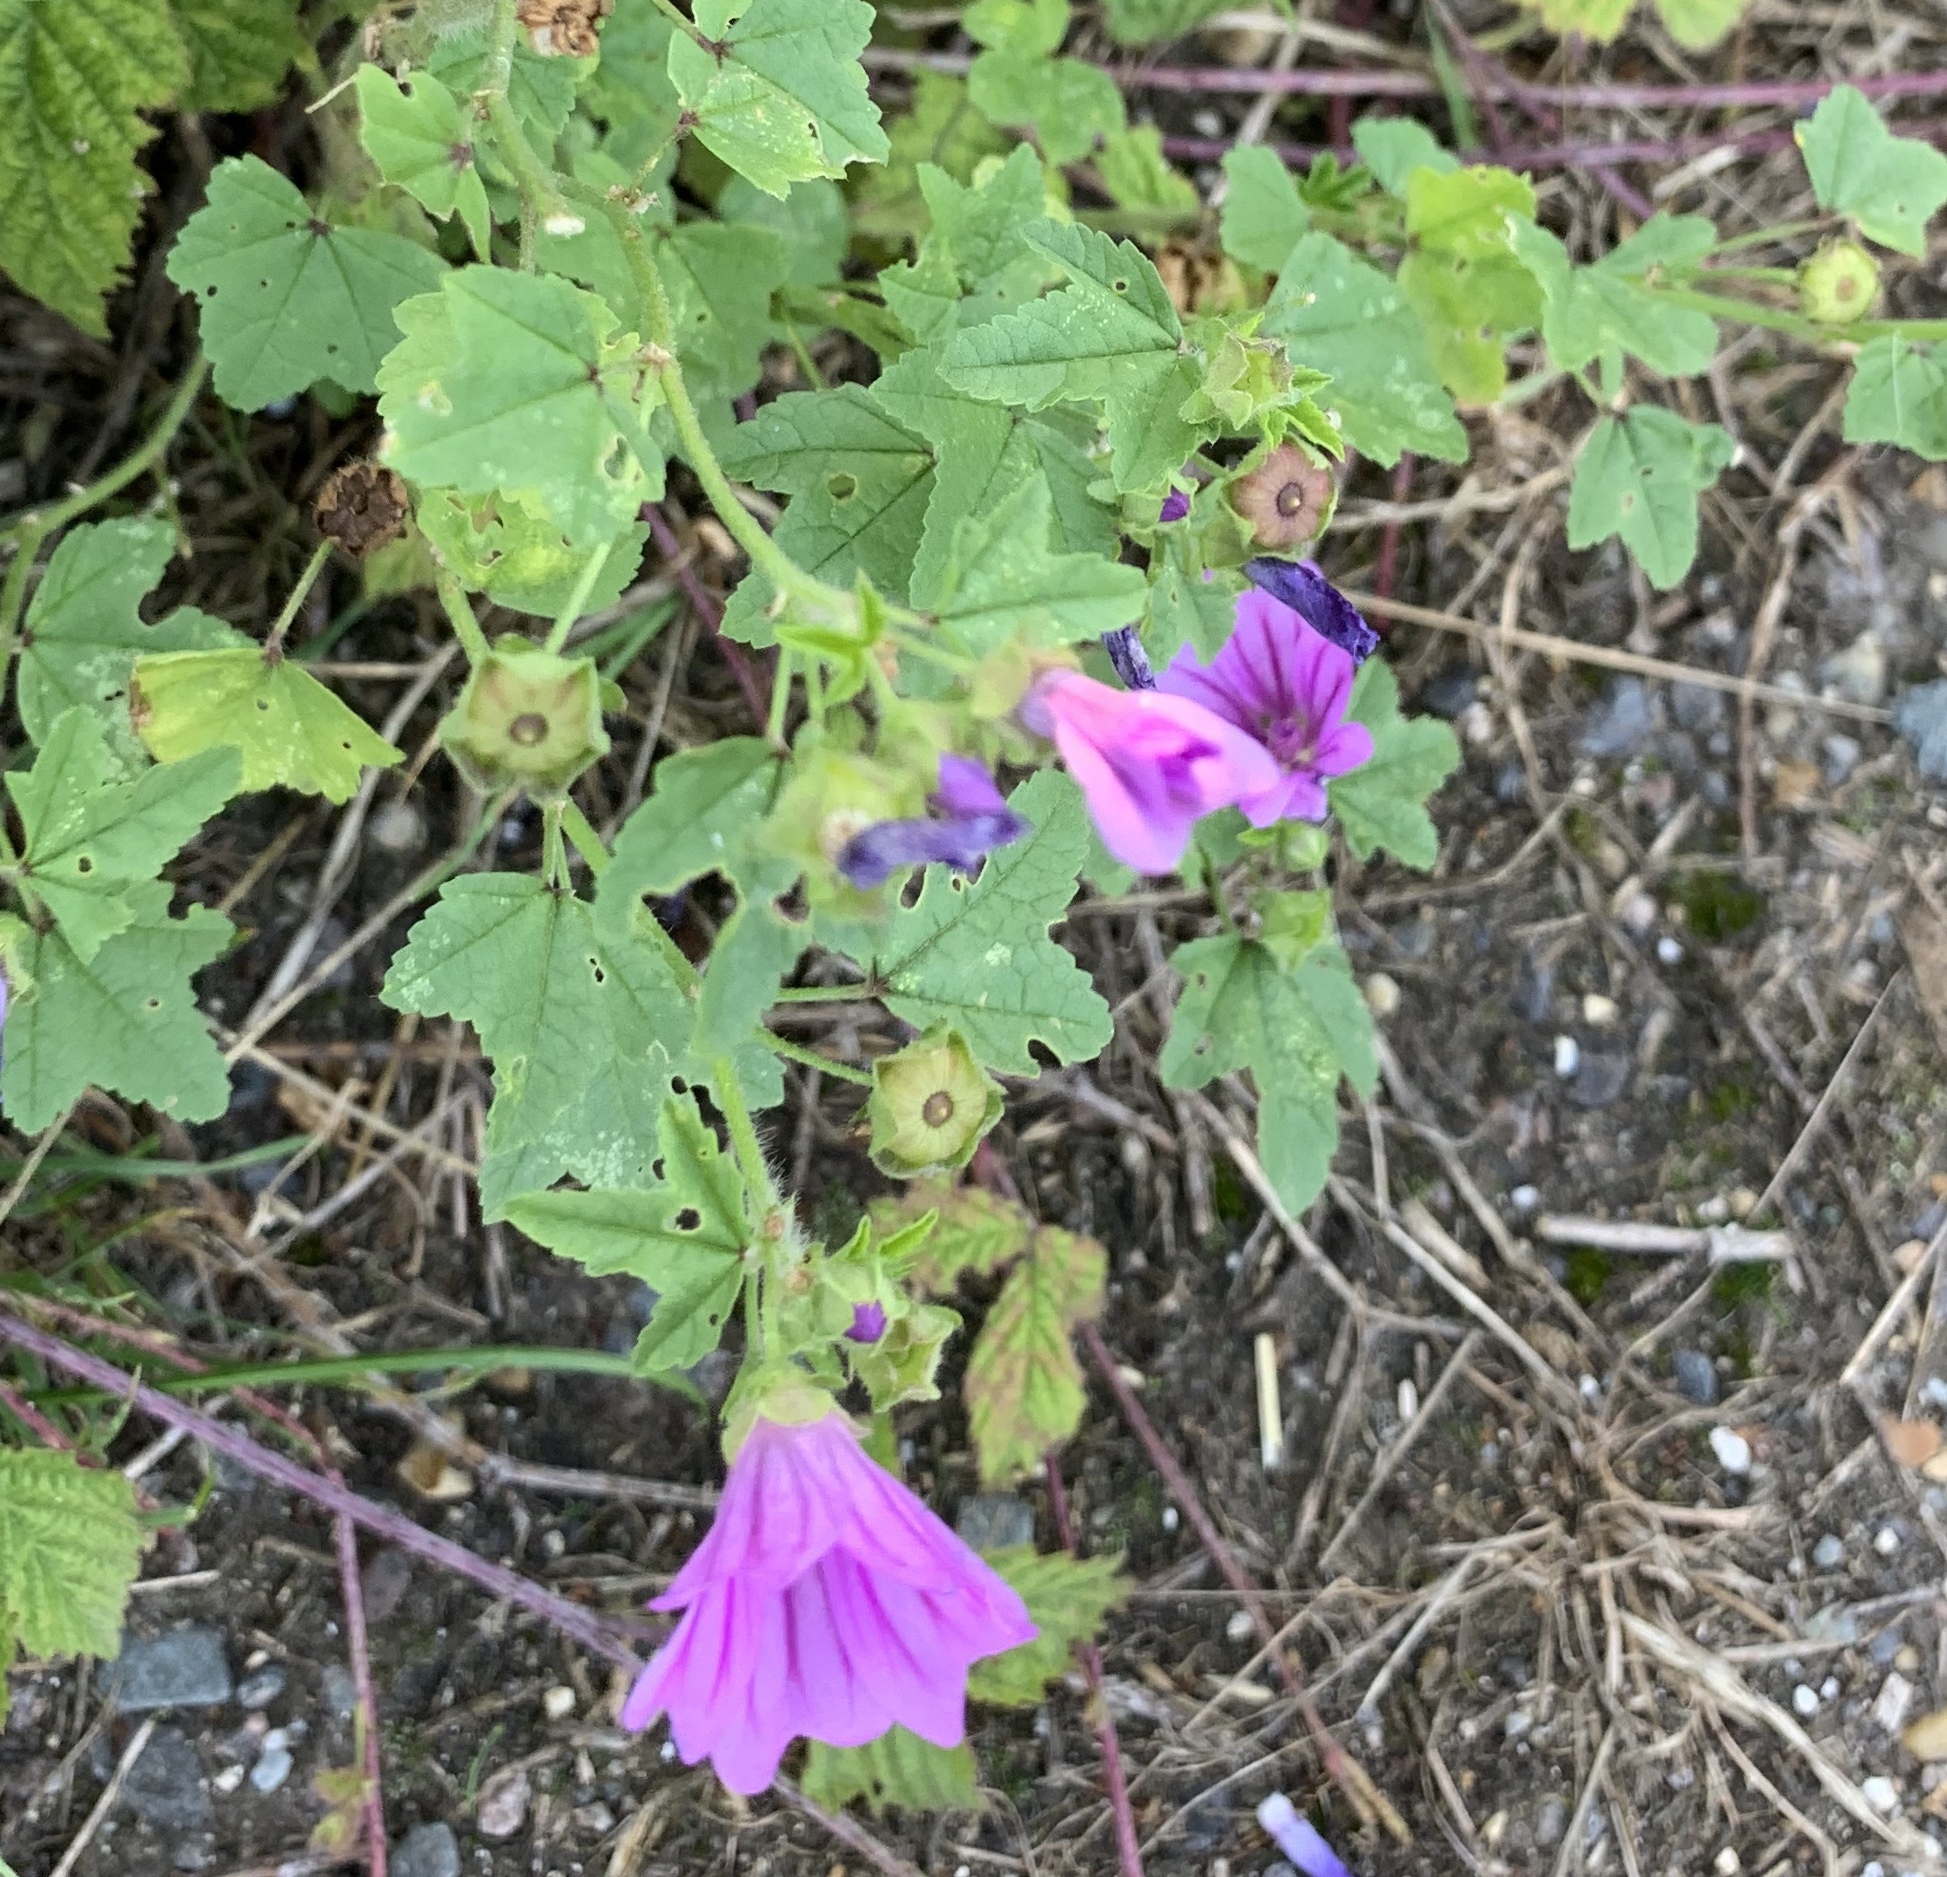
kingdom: Plantae
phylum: Tracheophyta
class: Magnoliopsida
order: Malvales
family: Malvaceae
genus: Malva
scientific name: Malva sylvestris
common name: Common mallow
